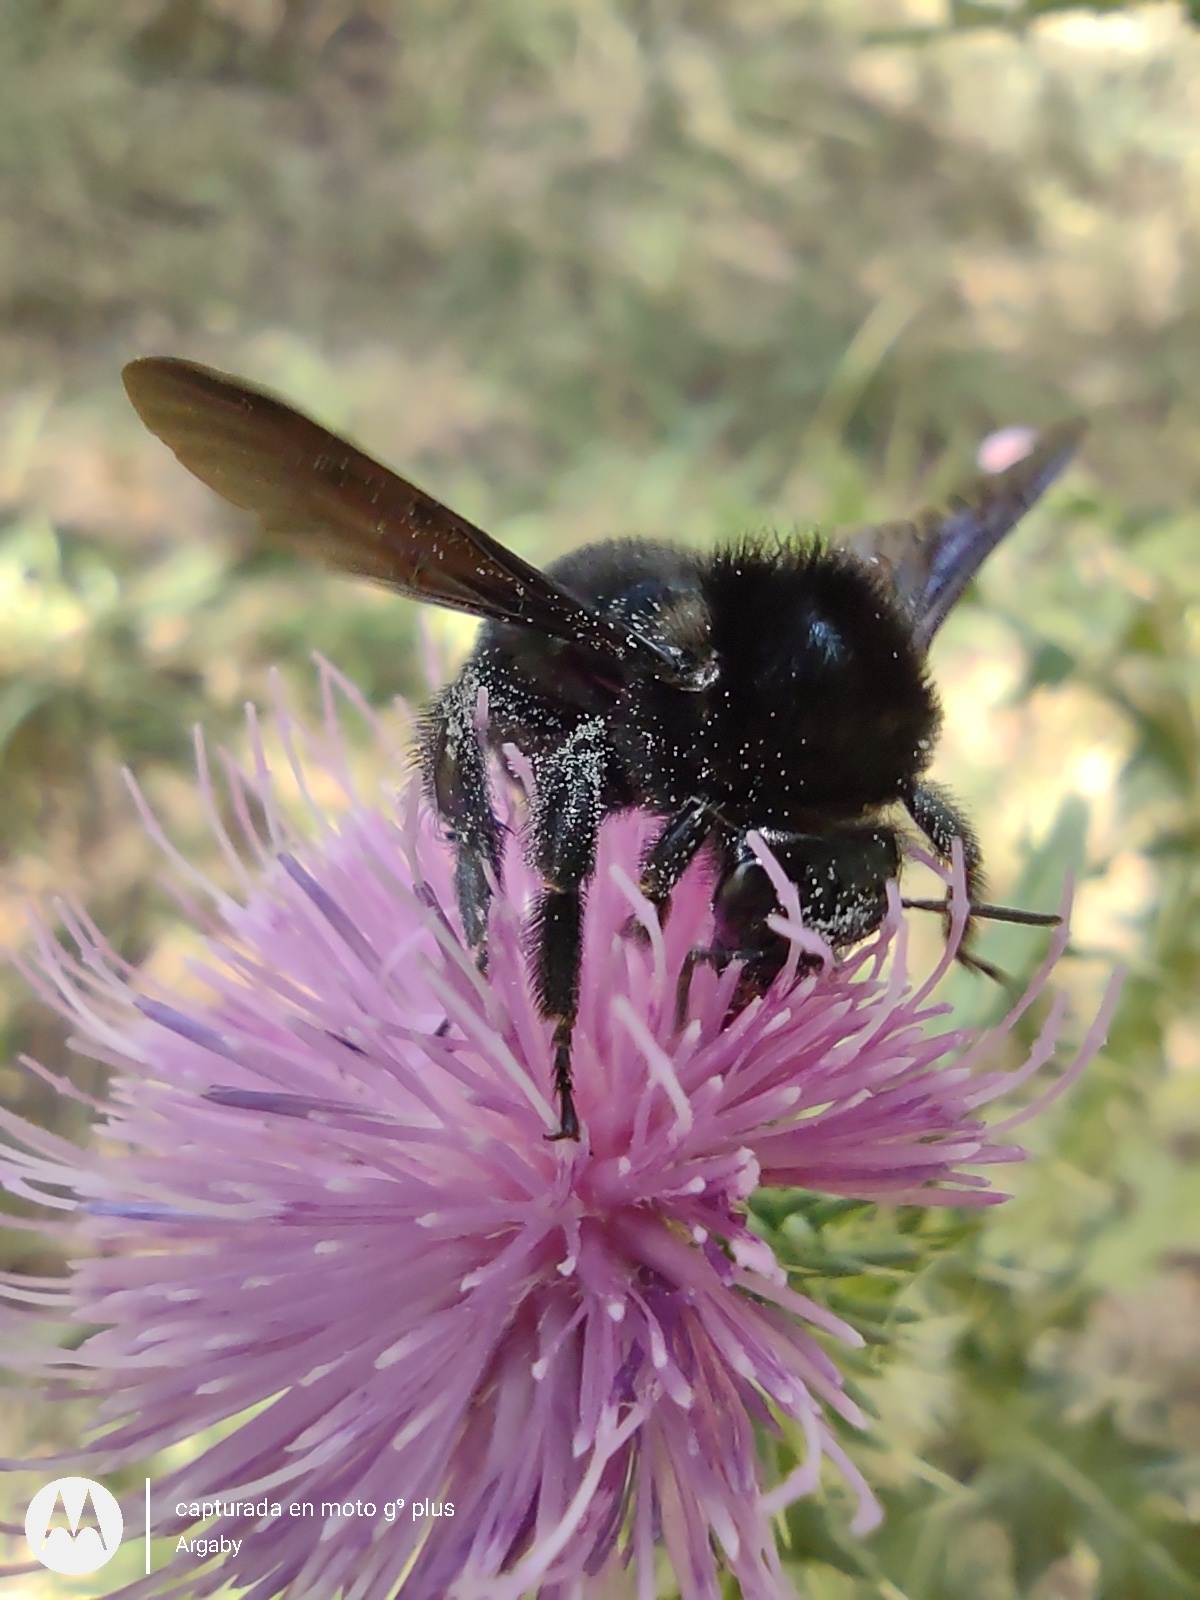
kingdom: Animalia
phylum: Arthropoda
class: Insecta
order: Hymenoptera
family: Apidae
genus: Bombus
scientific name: Bombus pauloensis
